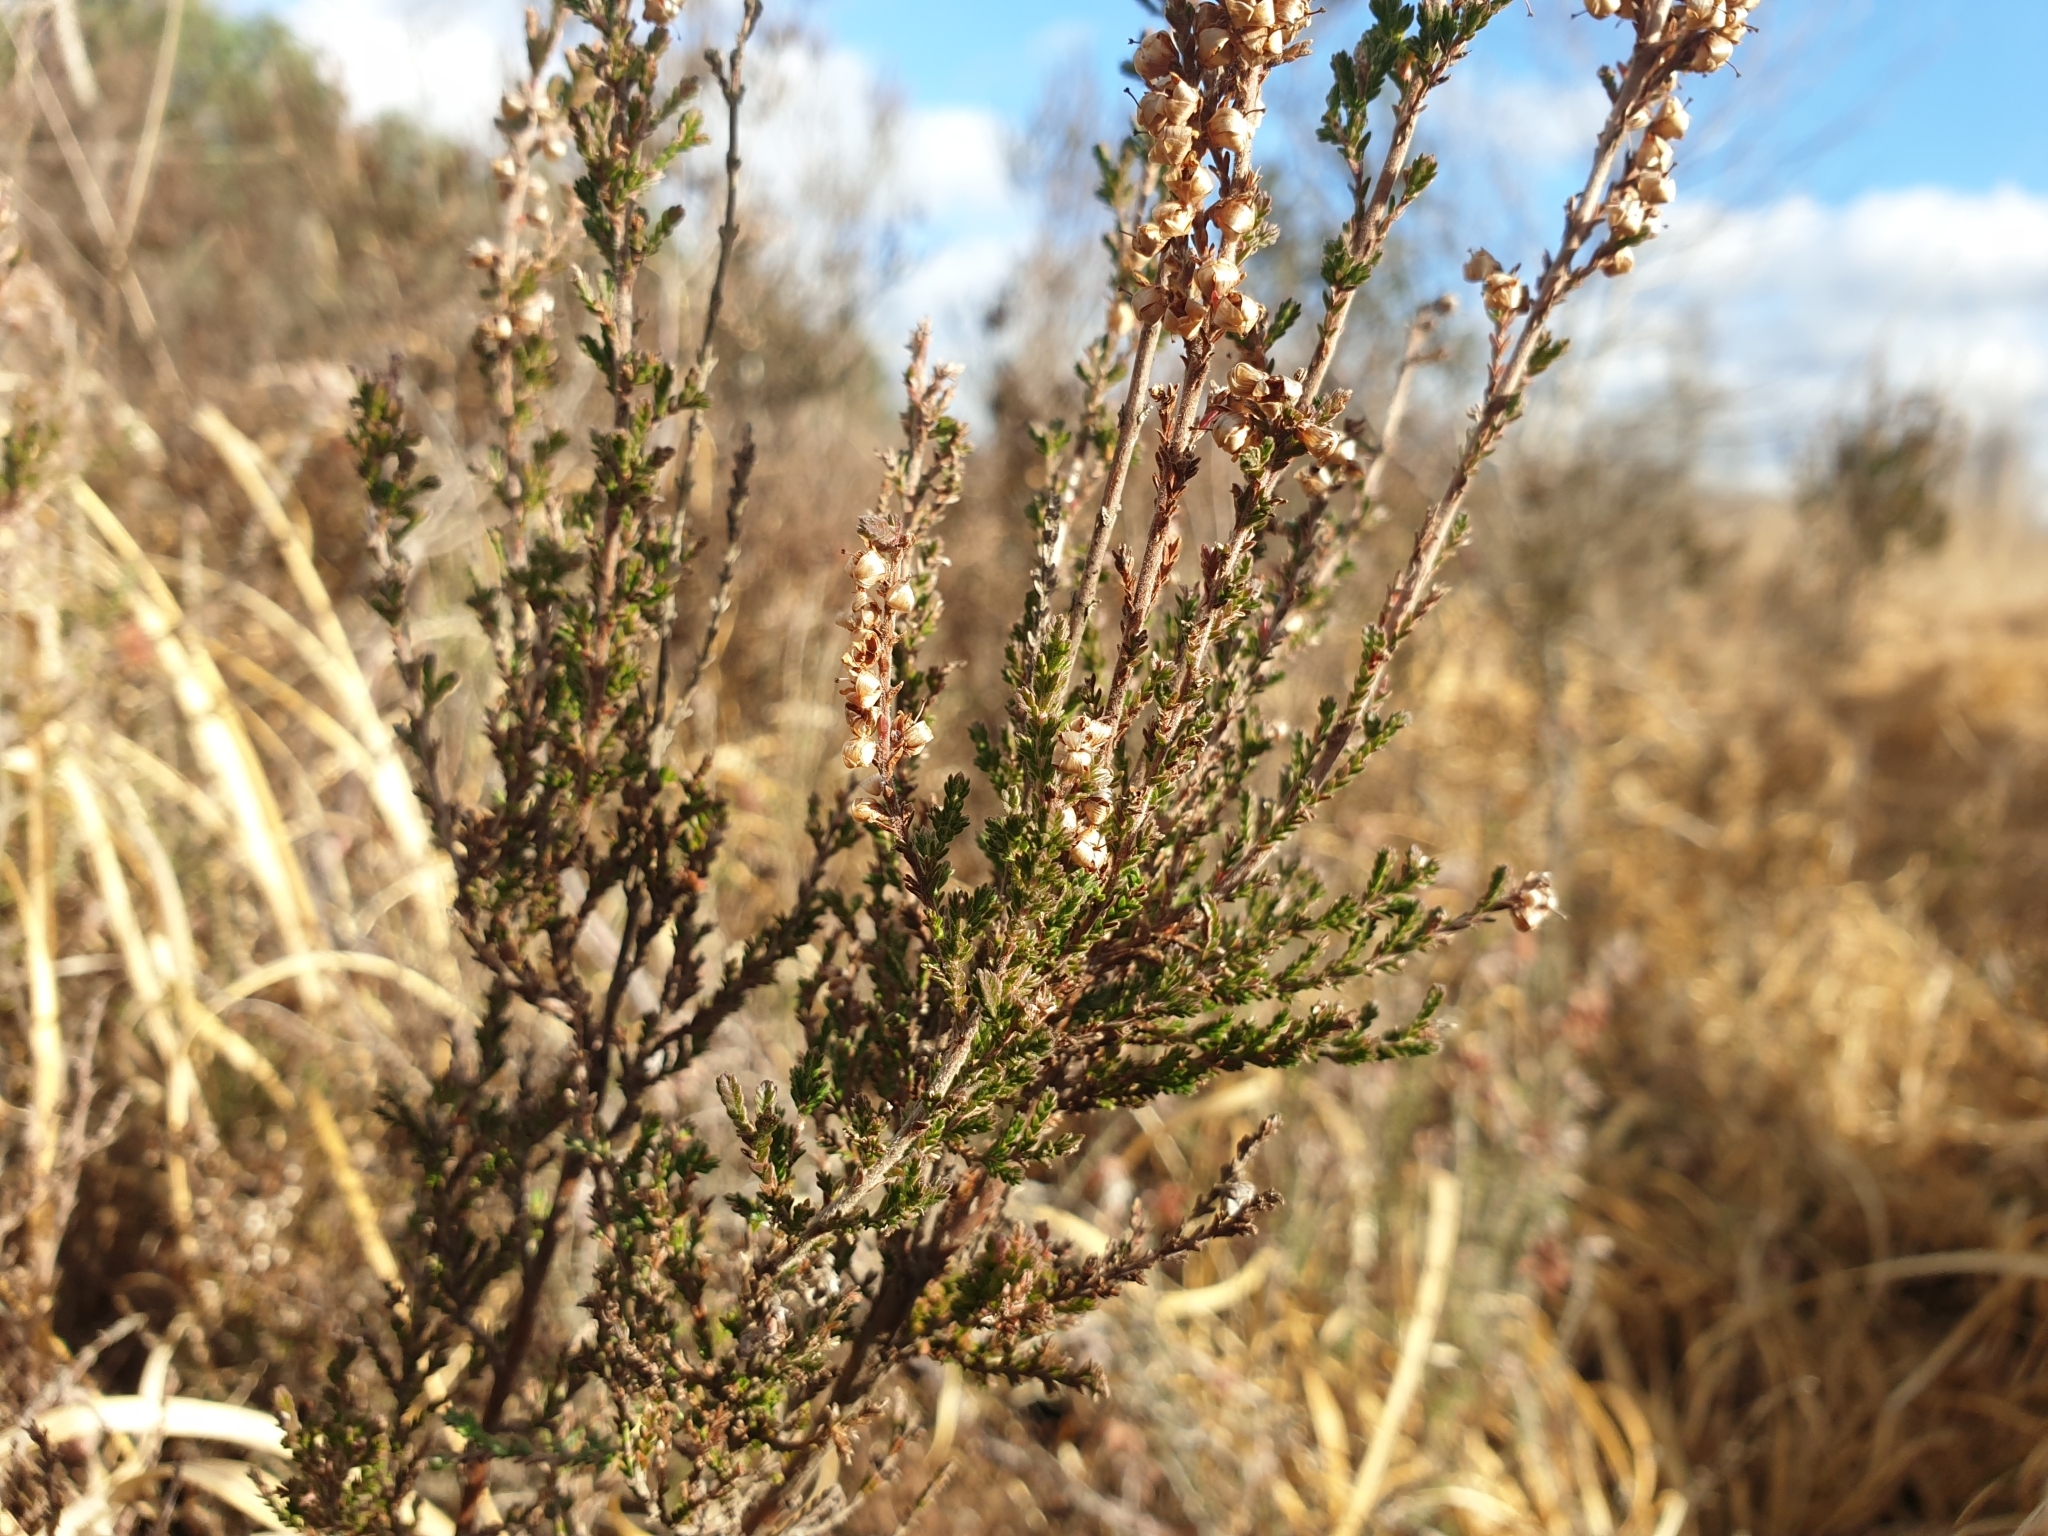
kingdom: Plantae
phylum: Tracheophyta
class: Magnoliopsida
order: Ericales
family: Ericaceae
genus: Calluna
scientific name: Calluna vulgaris
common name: Heather
